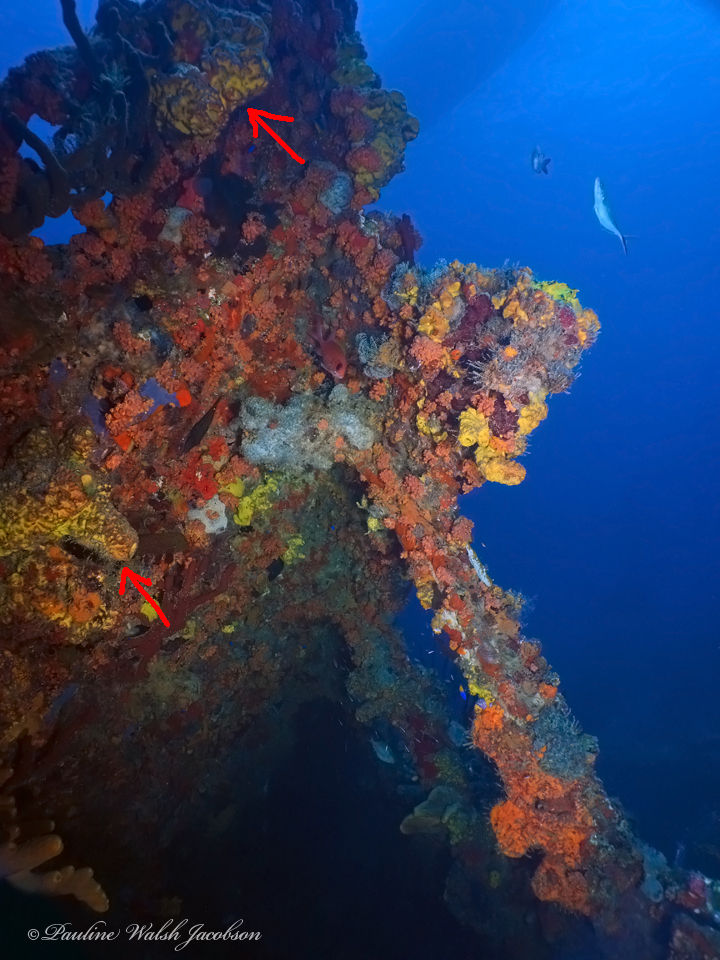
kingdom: Animalia
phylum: Porifera
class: Demospongiae
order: Verongiida
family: Aplysinidae
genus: Aplysina
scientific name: Aplysina lacunosa
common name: Convoluted barrel sponge
